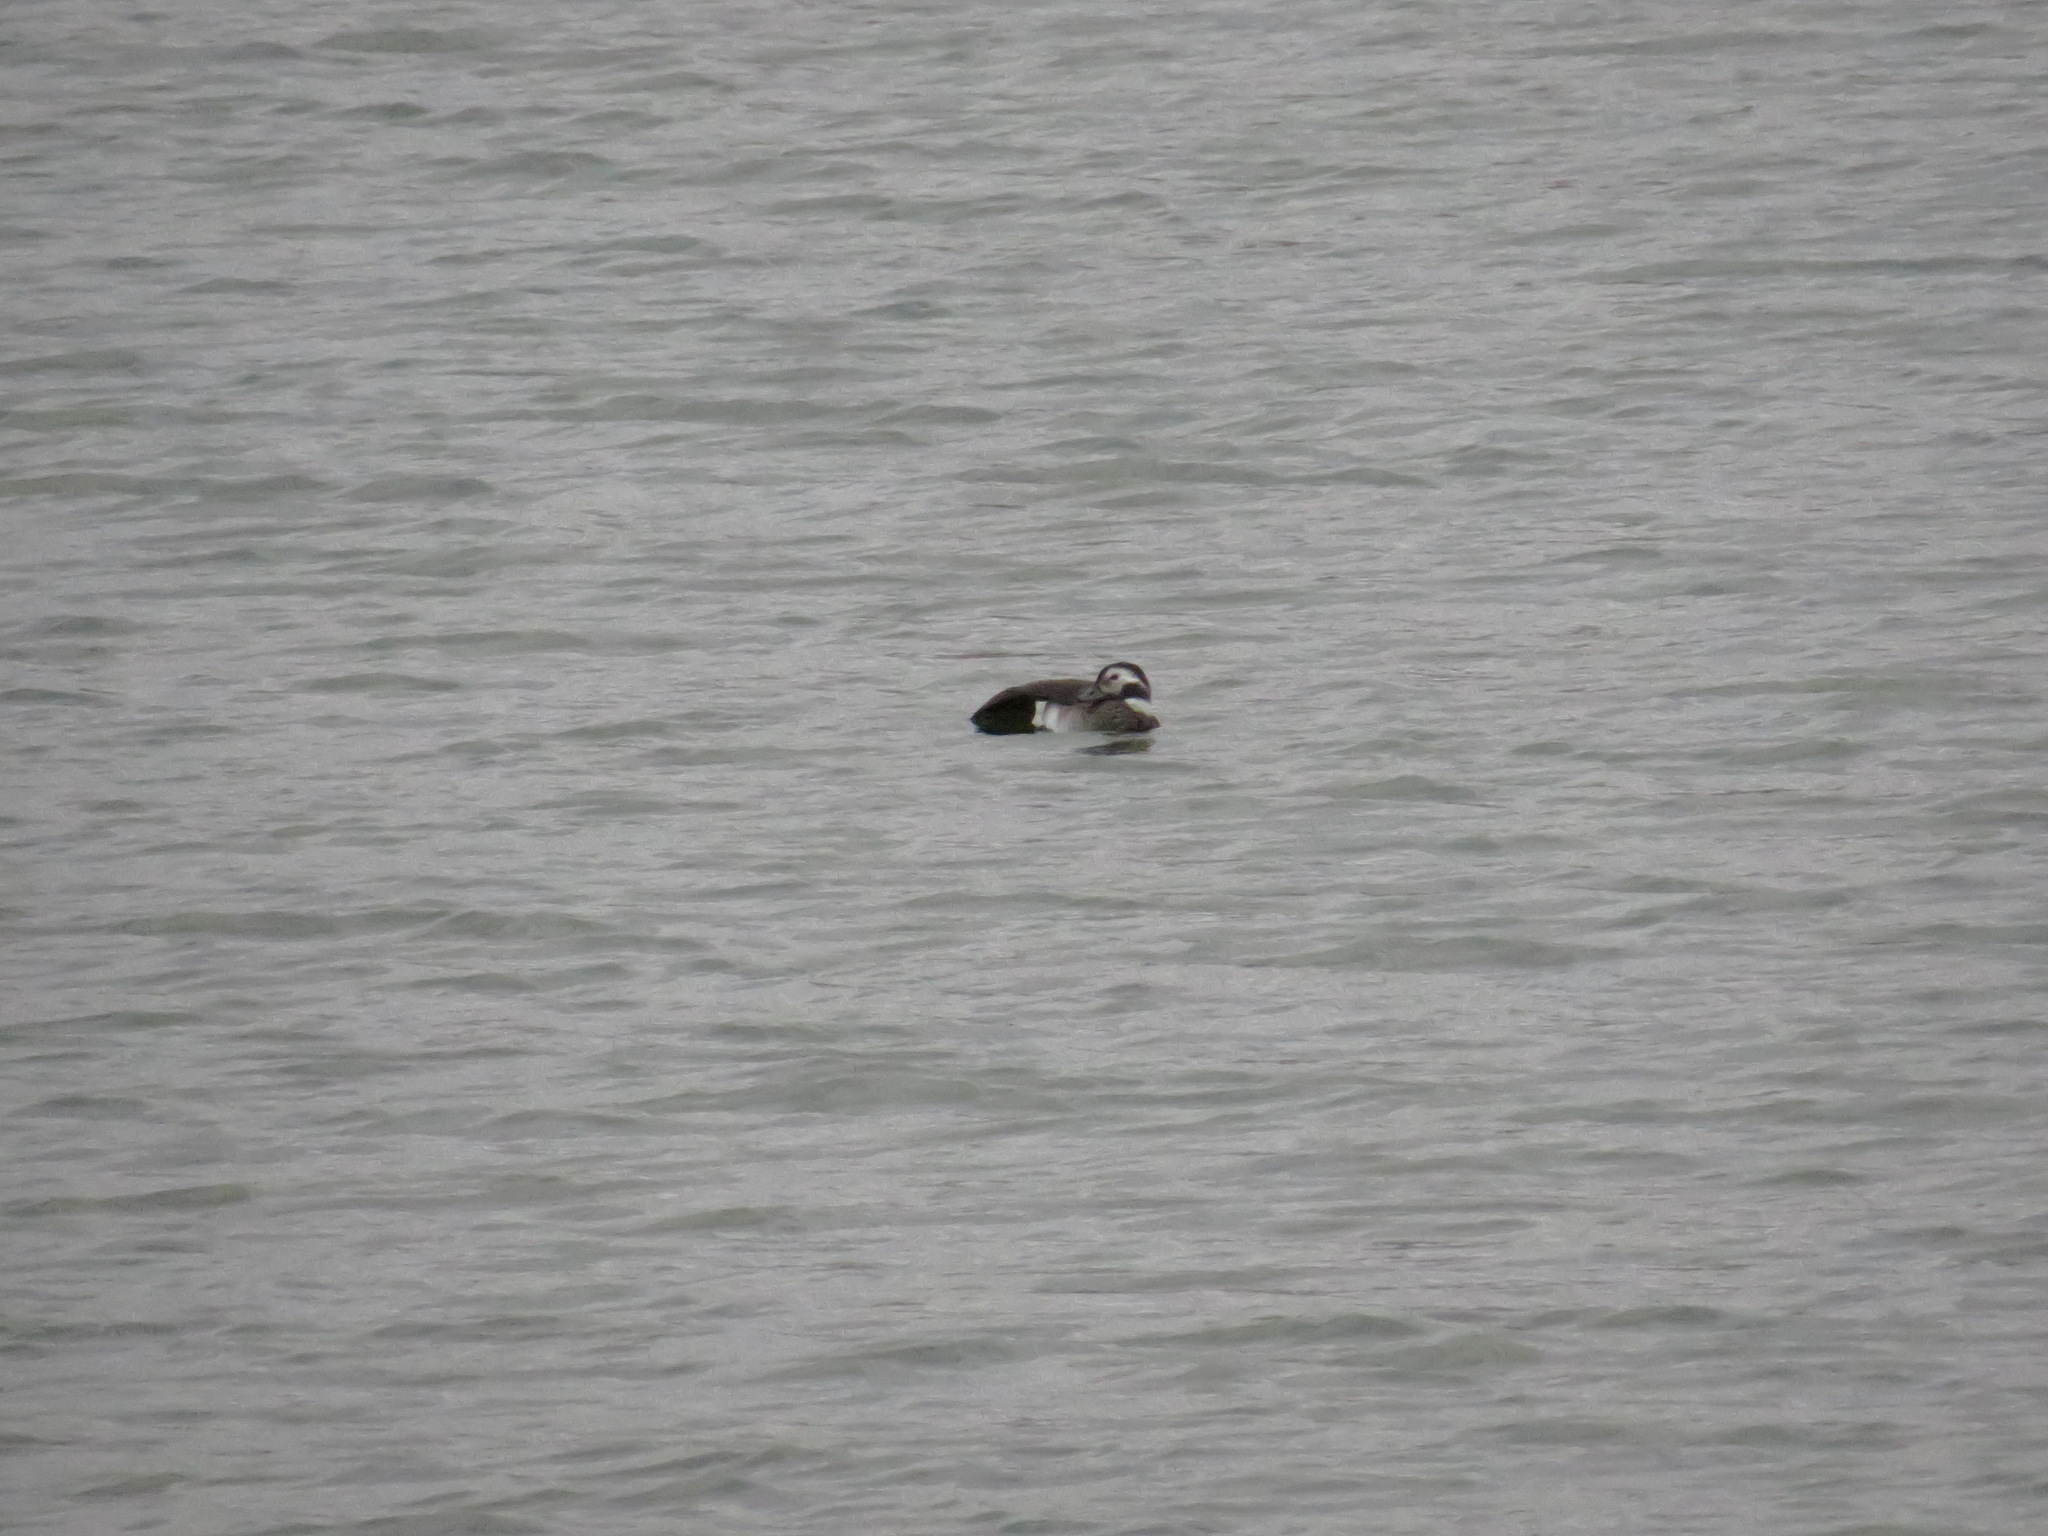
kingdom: Animalia
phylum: Chordata
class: Aves
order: Anseriformes
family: Anatidae
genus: Clangula
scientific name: Clangula hyemalis
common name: Long-tailed duck
